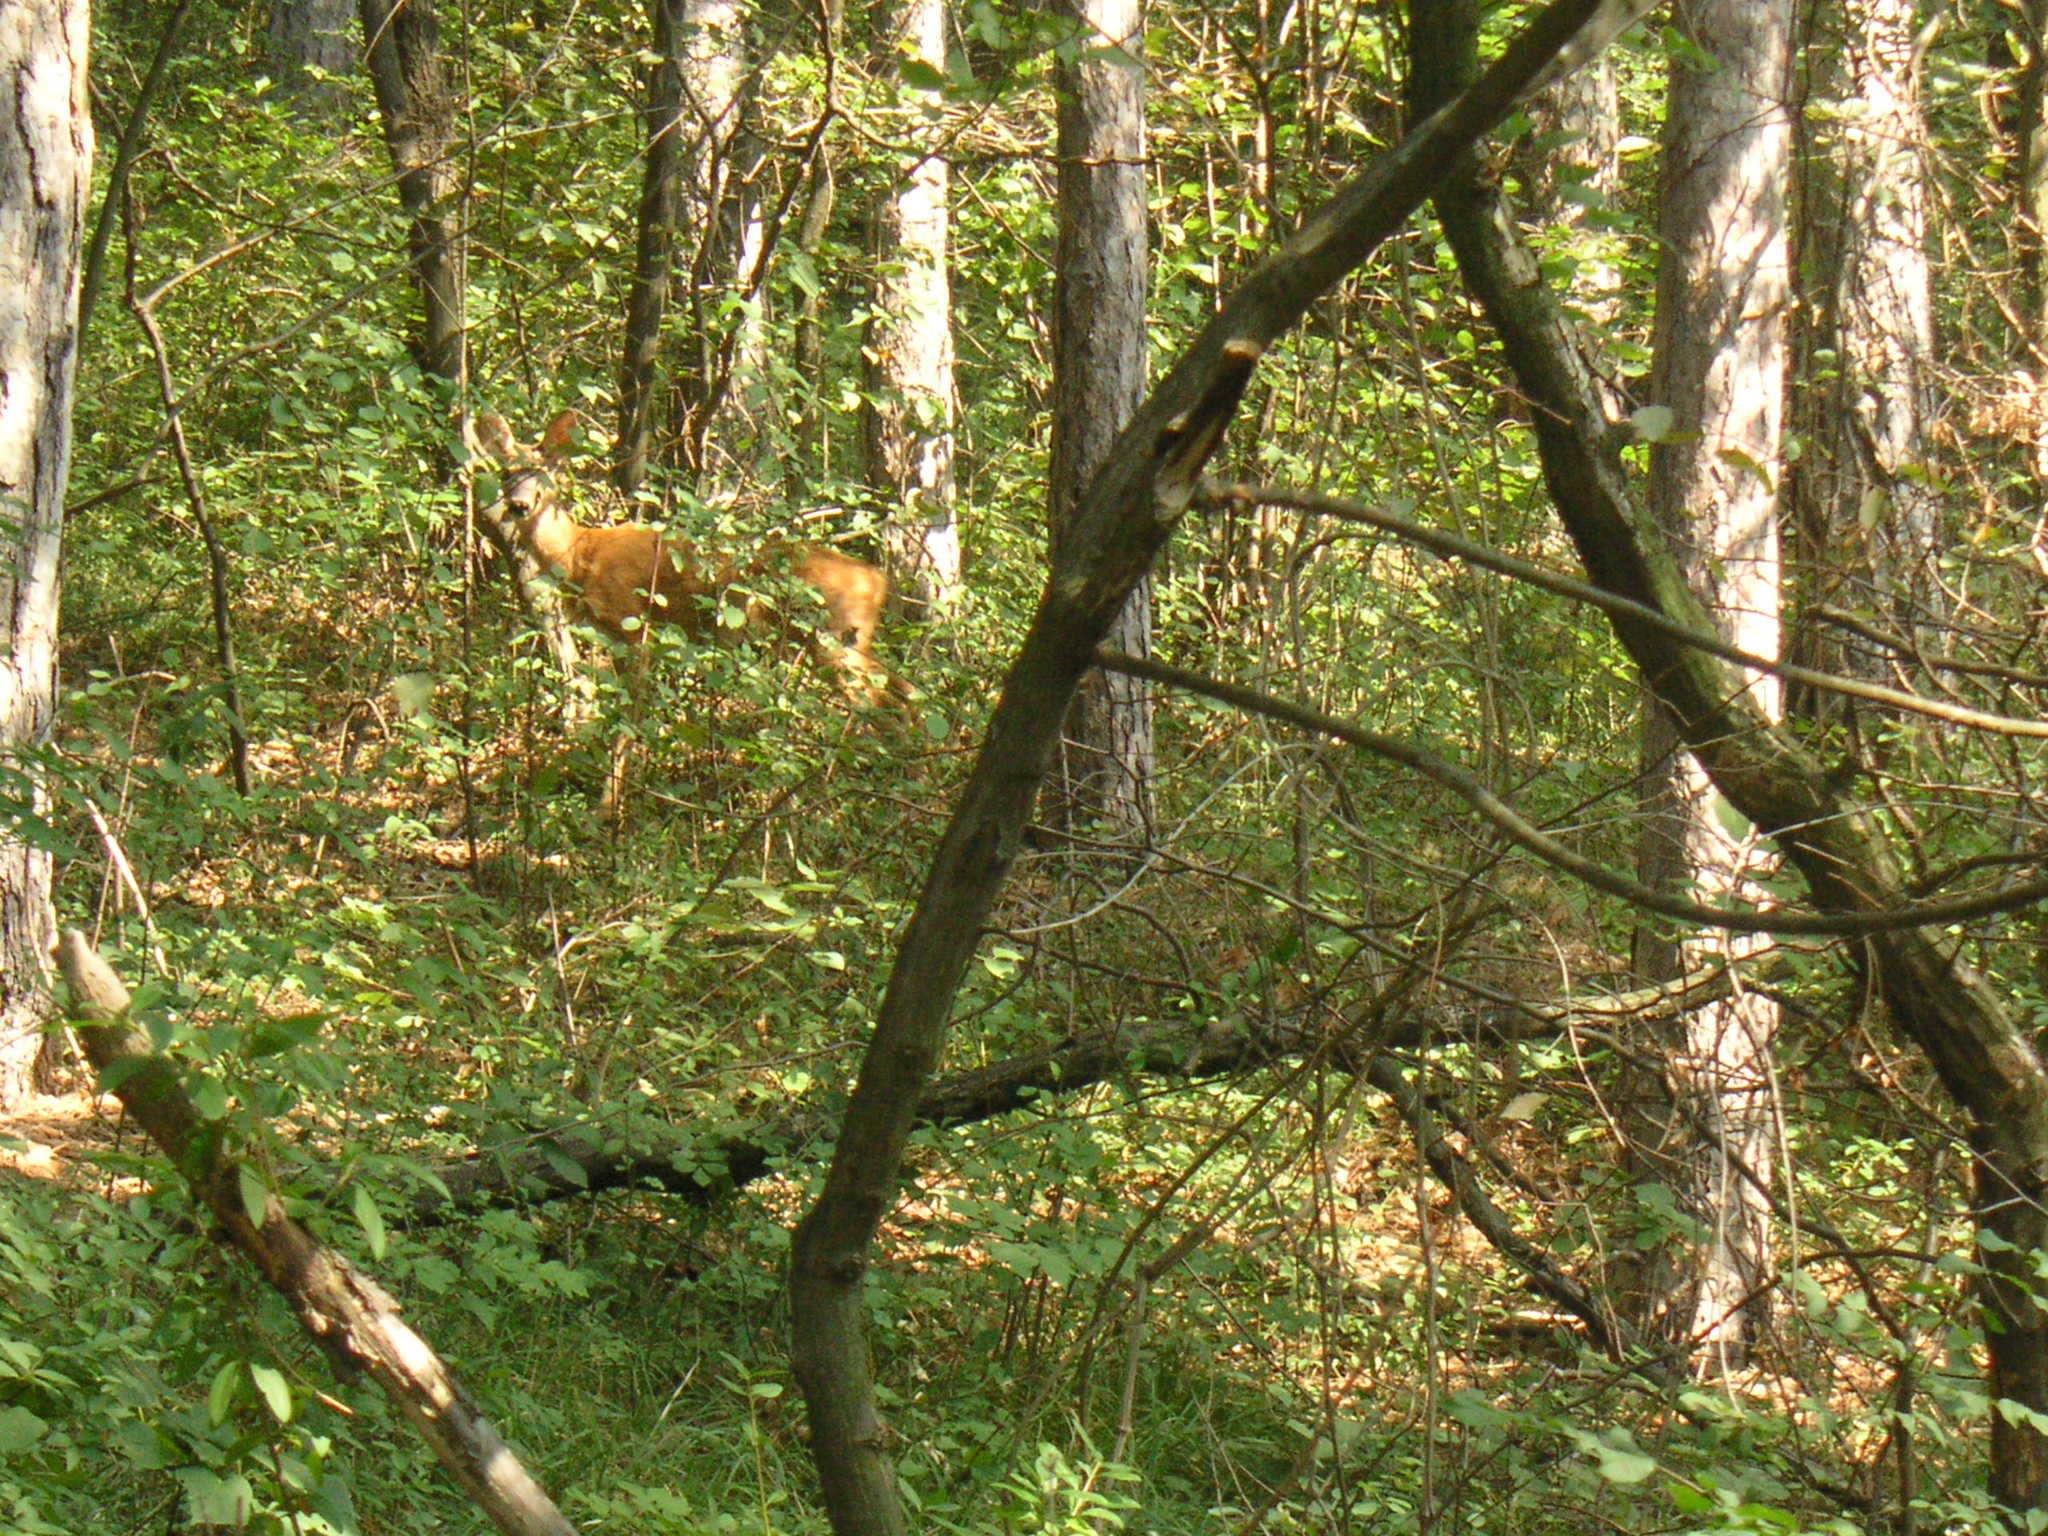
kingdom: Animalia
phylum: Chordata
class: Mammalia
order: Artiodactyla
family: Cervidae
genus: Capreolus
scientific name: Capreolus capreolus
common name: Western roe deer
